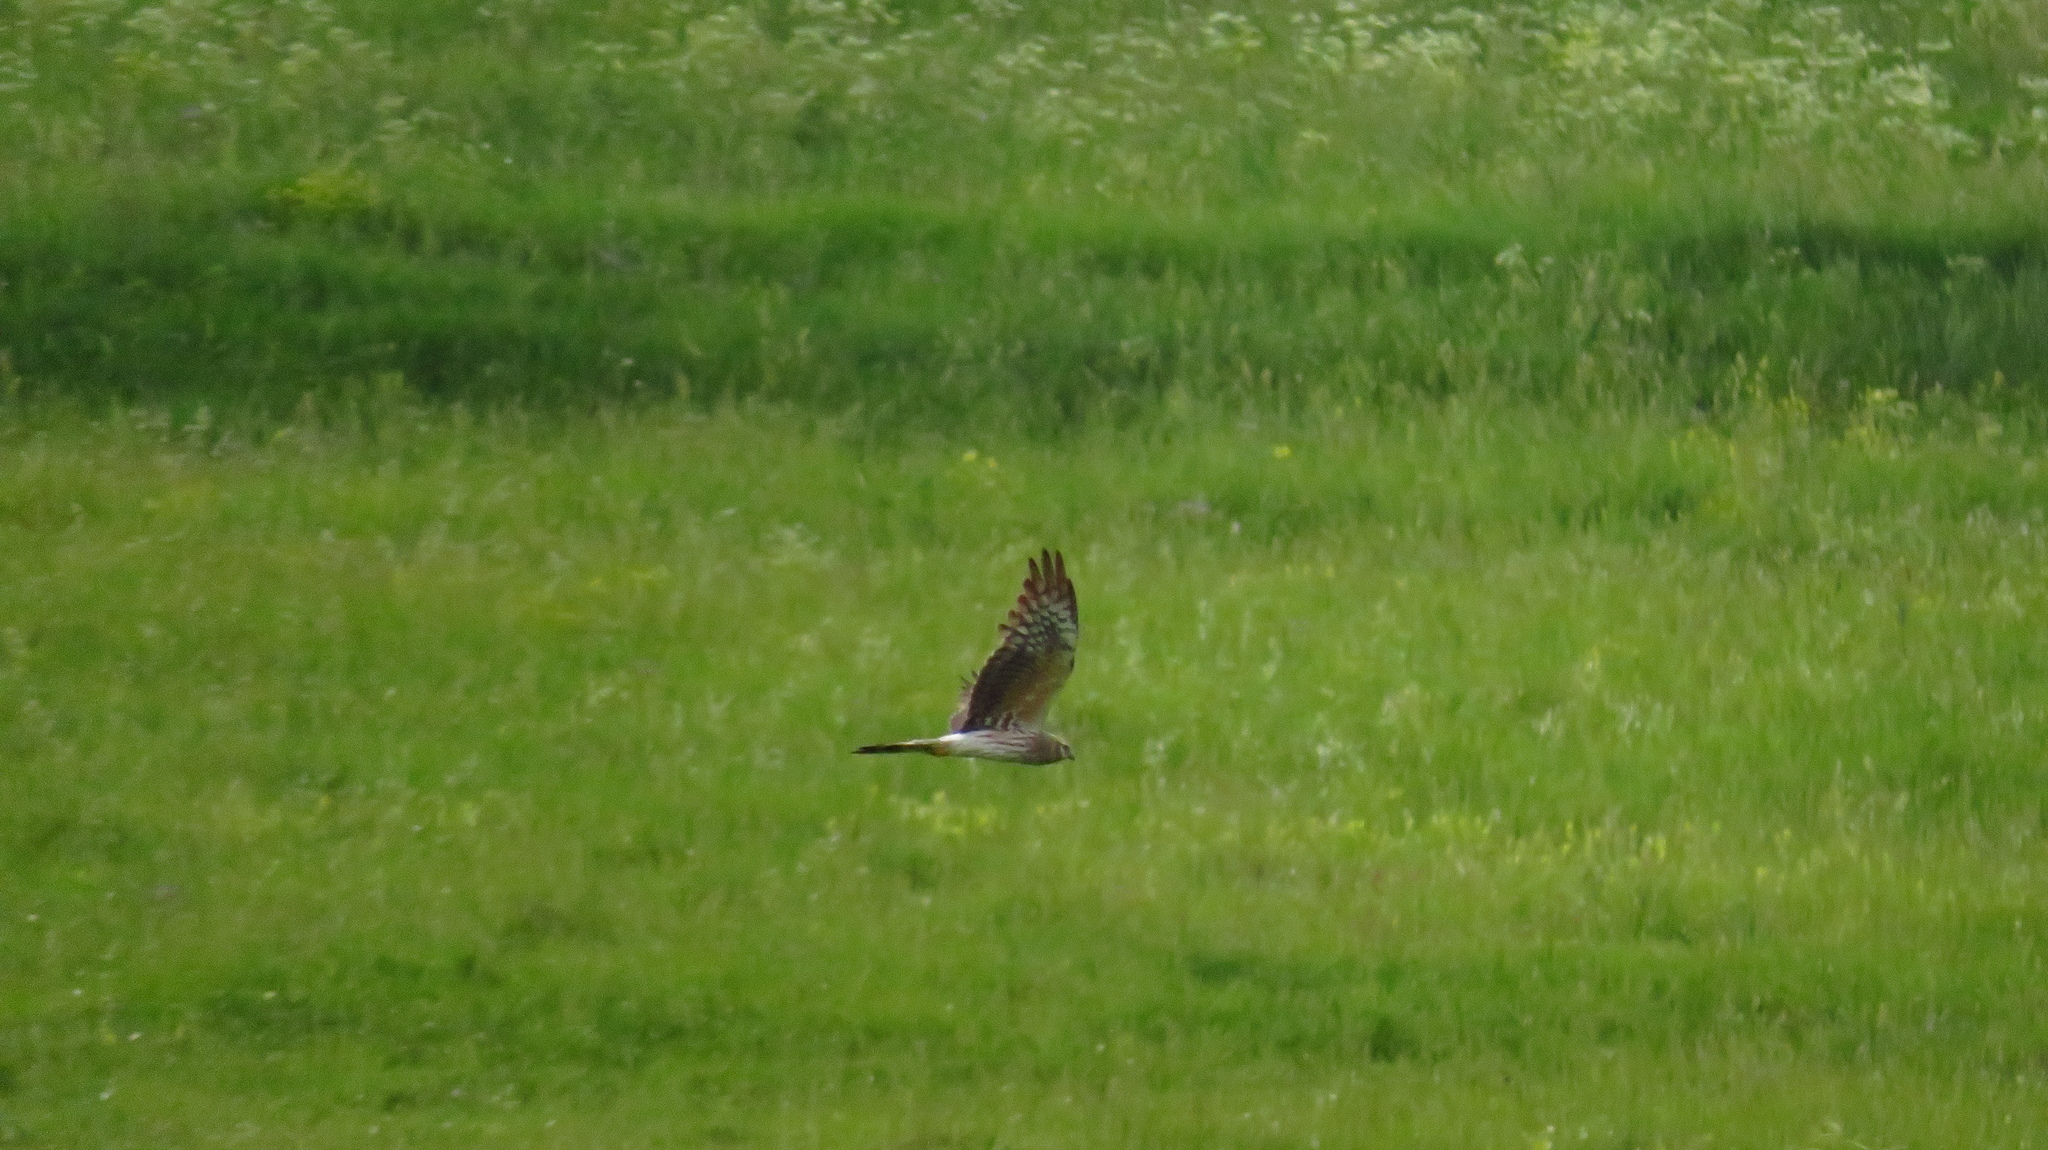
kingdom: Animalia
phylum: Chordata
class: Aves
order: Accipitriformes
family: Accipitridae
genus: Circus
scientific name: Circus pygargus
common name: Montagu's harrier
